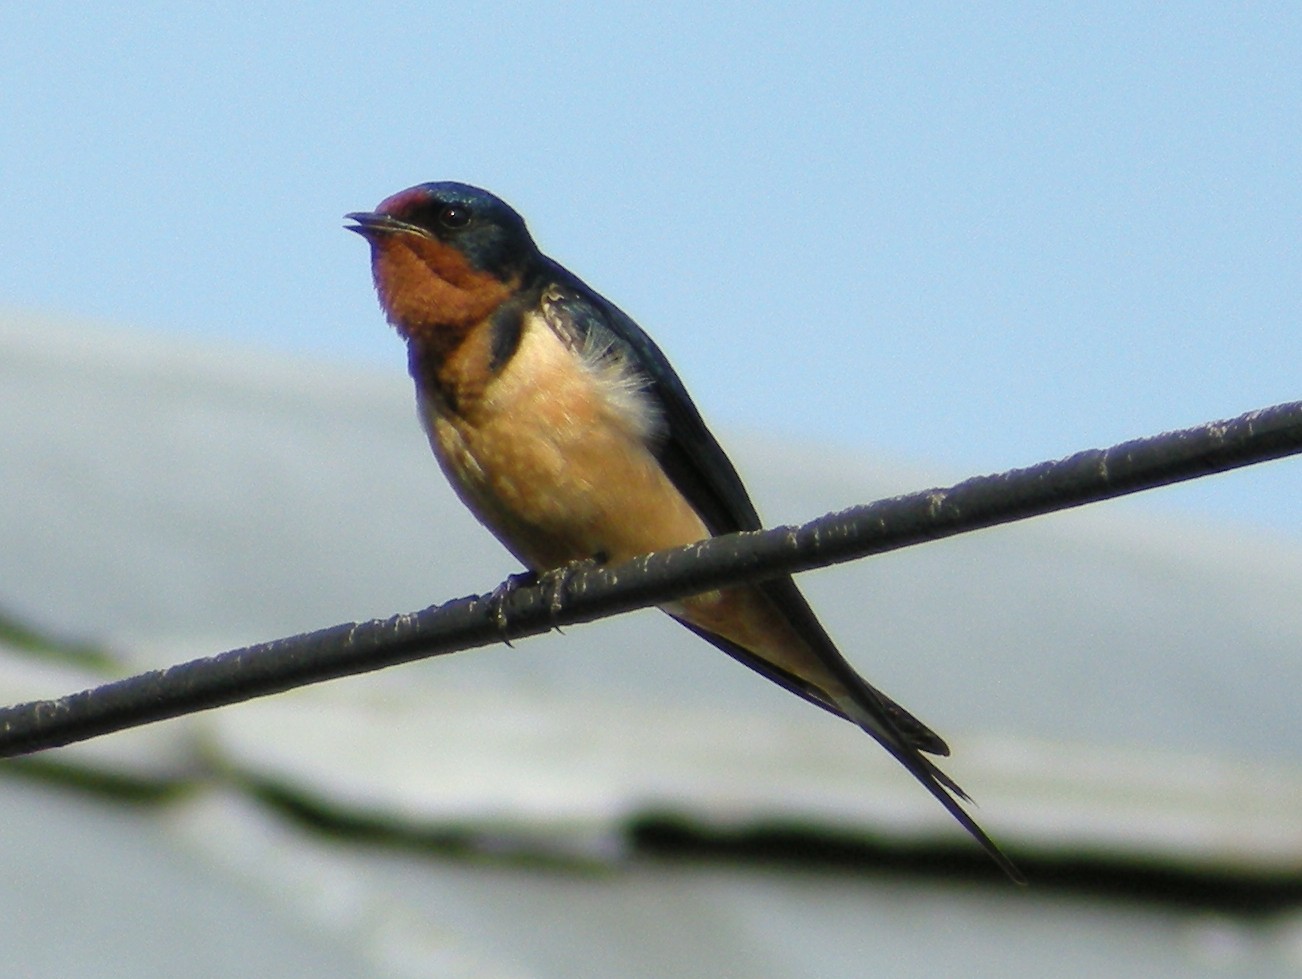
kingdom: Animalia
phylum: Chordata
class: Aves
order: Passeriformes
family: Hirundinidae
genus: Hirundo
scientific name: Hirundo rustica
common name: Barn swallow
